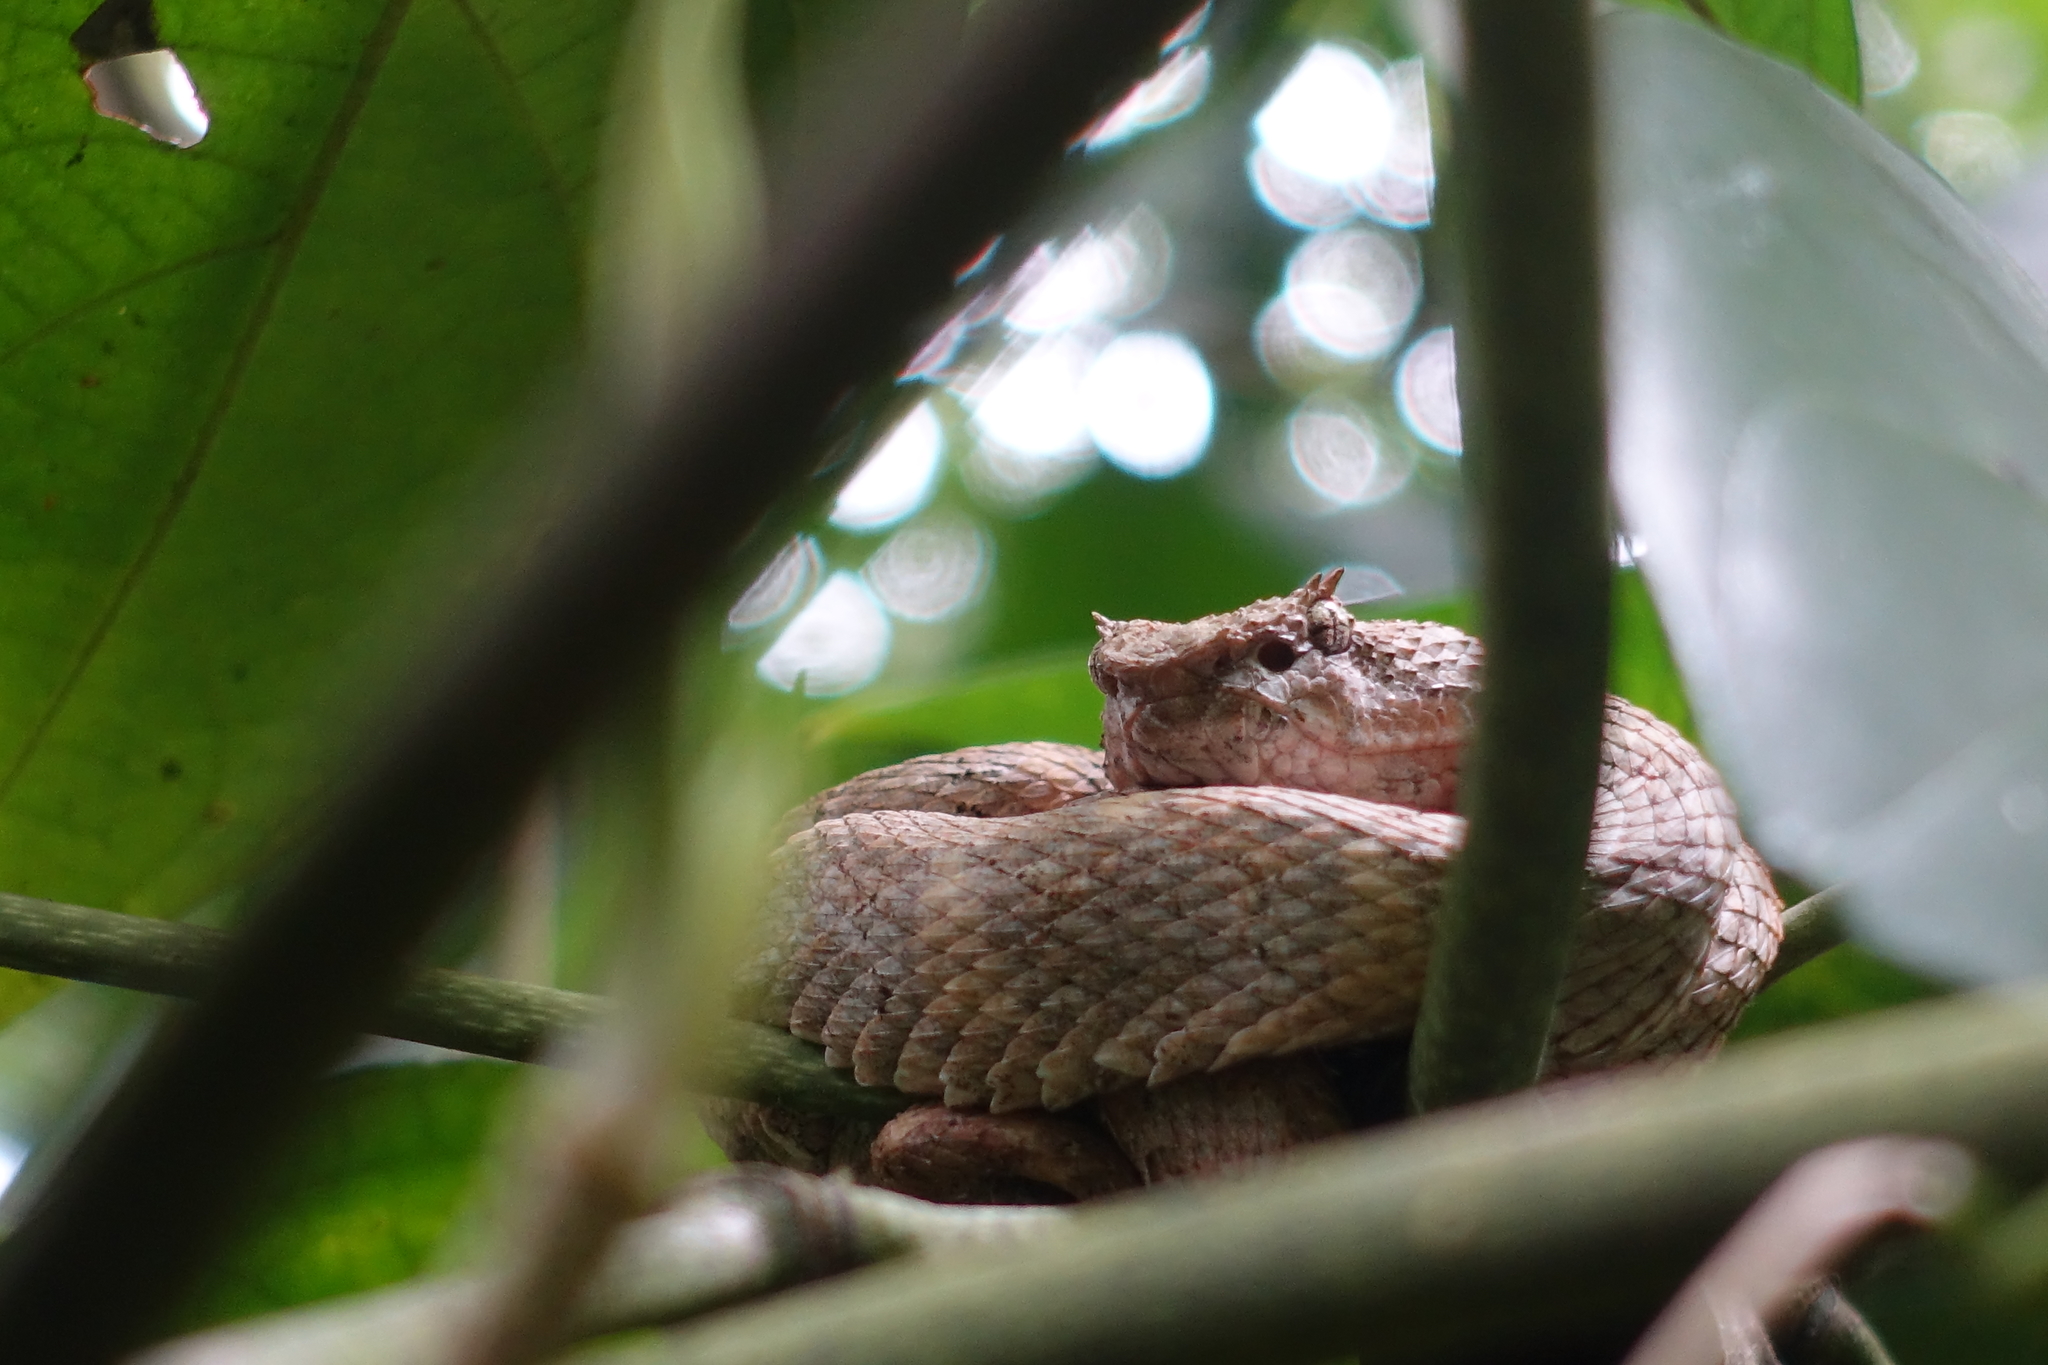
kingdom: Animalia
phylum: Chordata
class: Squamata
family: Viperidae
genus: Bothriechis
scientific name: Bothriechis schlegelii
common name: Eyelash viper
